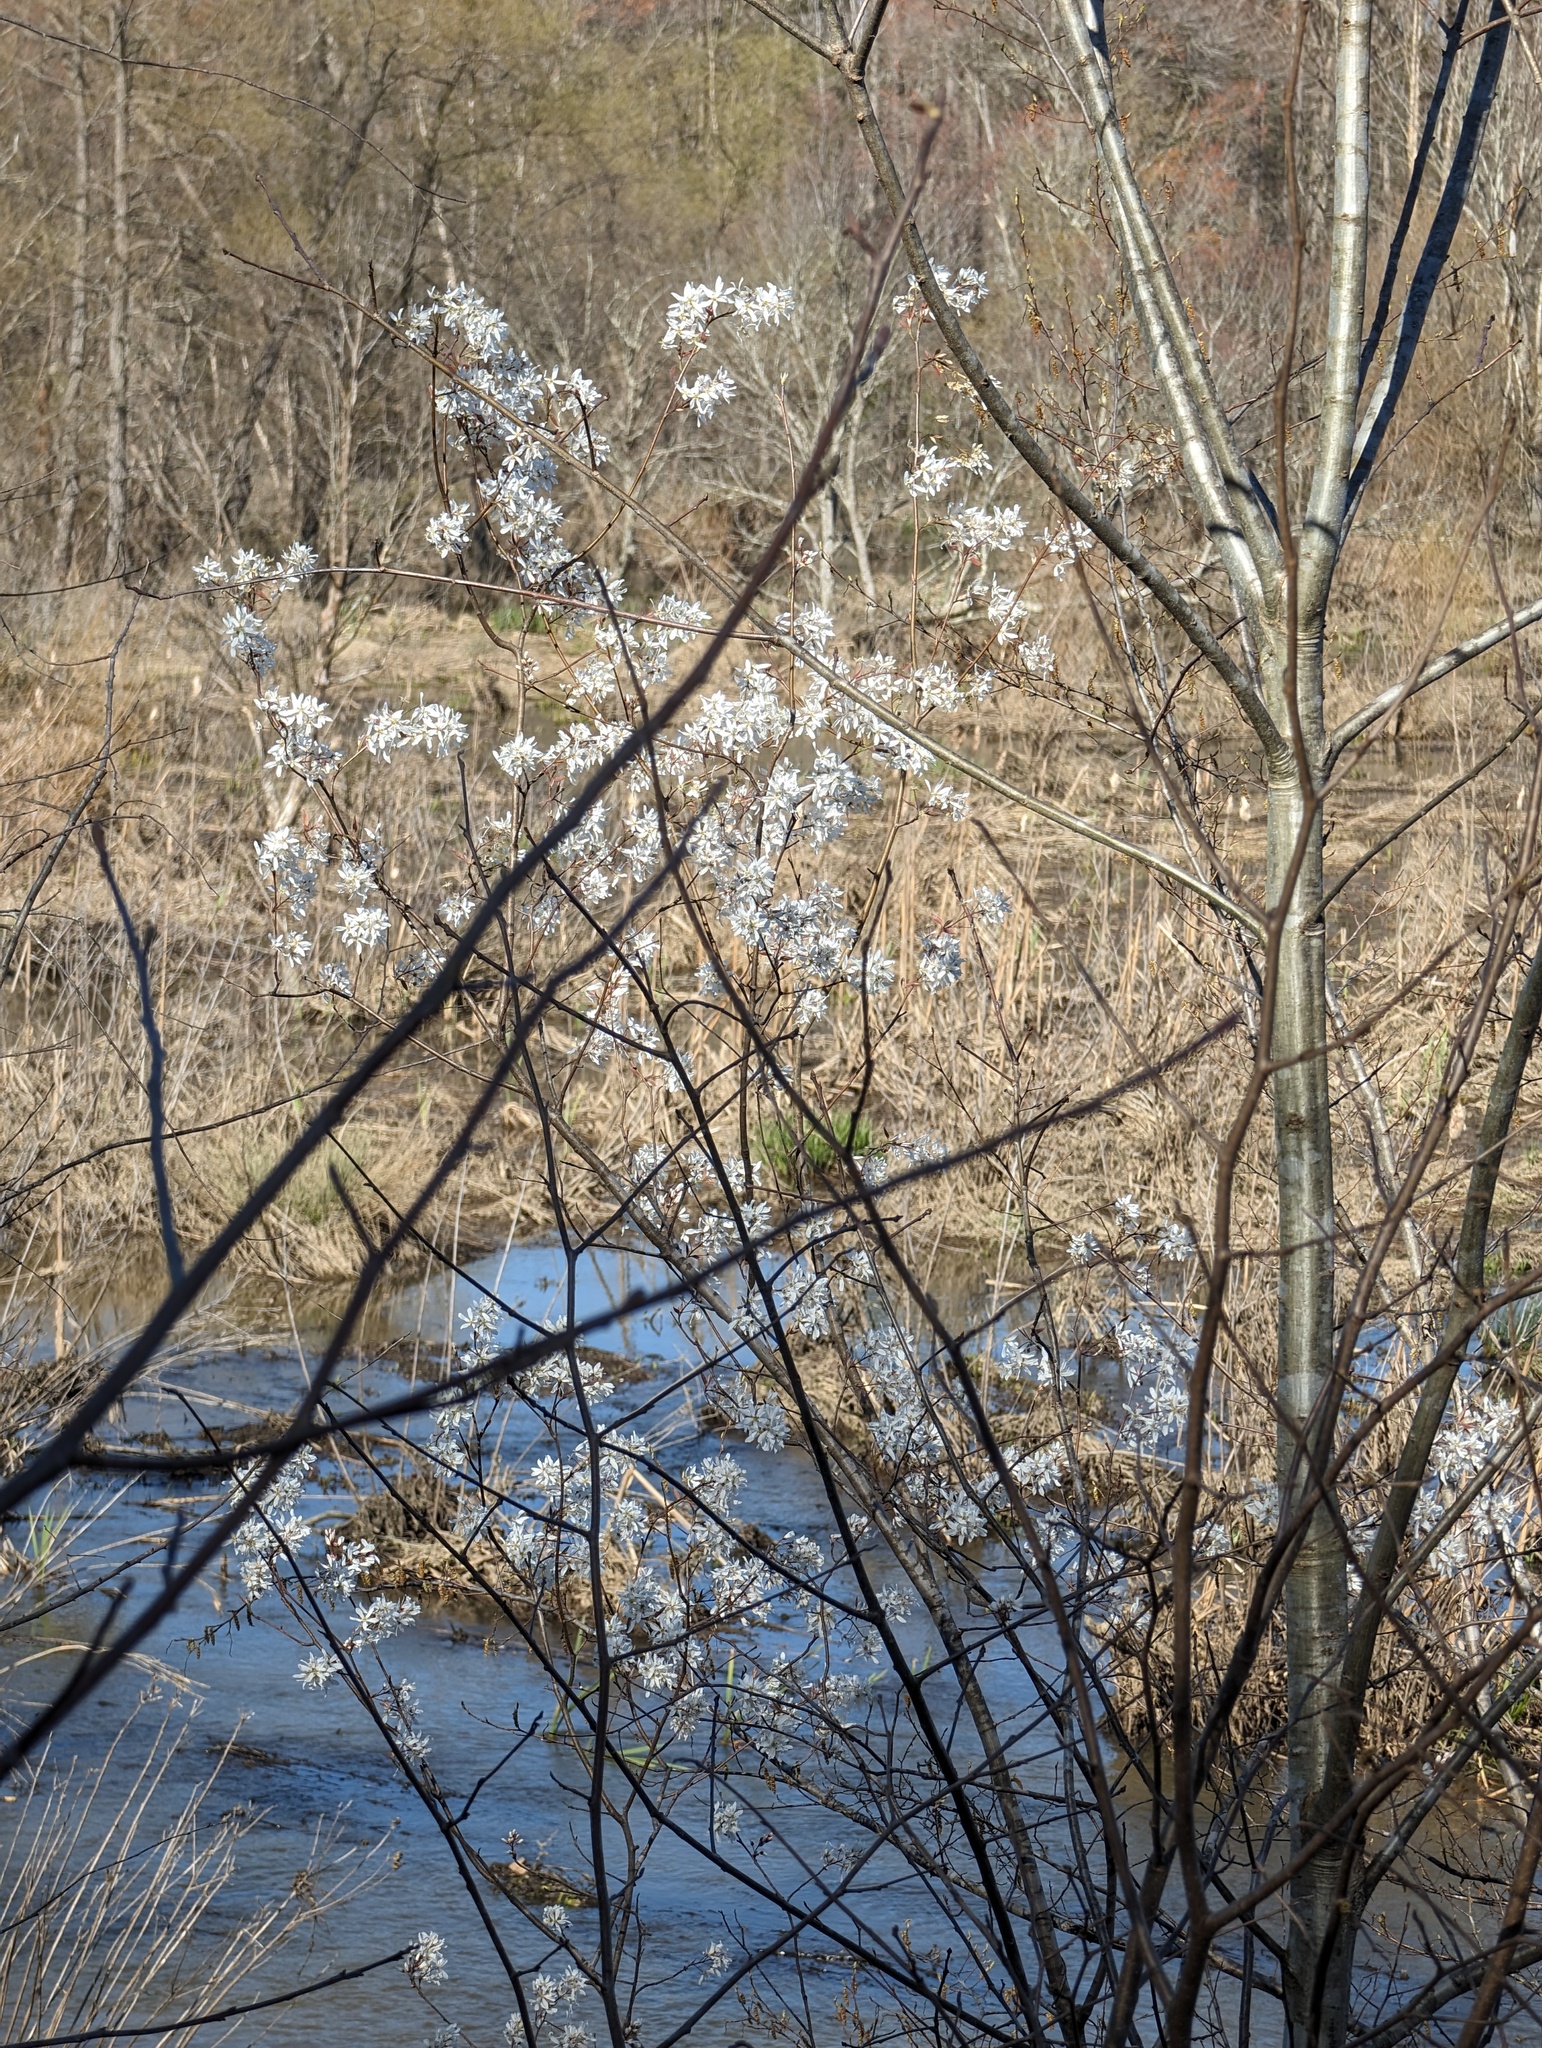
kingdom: Plantae
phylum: Tracheophyta
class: Magnoliopsida
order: Rosales
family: Rosaceae
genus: Amelanchier
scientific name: Amelanchier arborea
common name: Downy serviceberry
